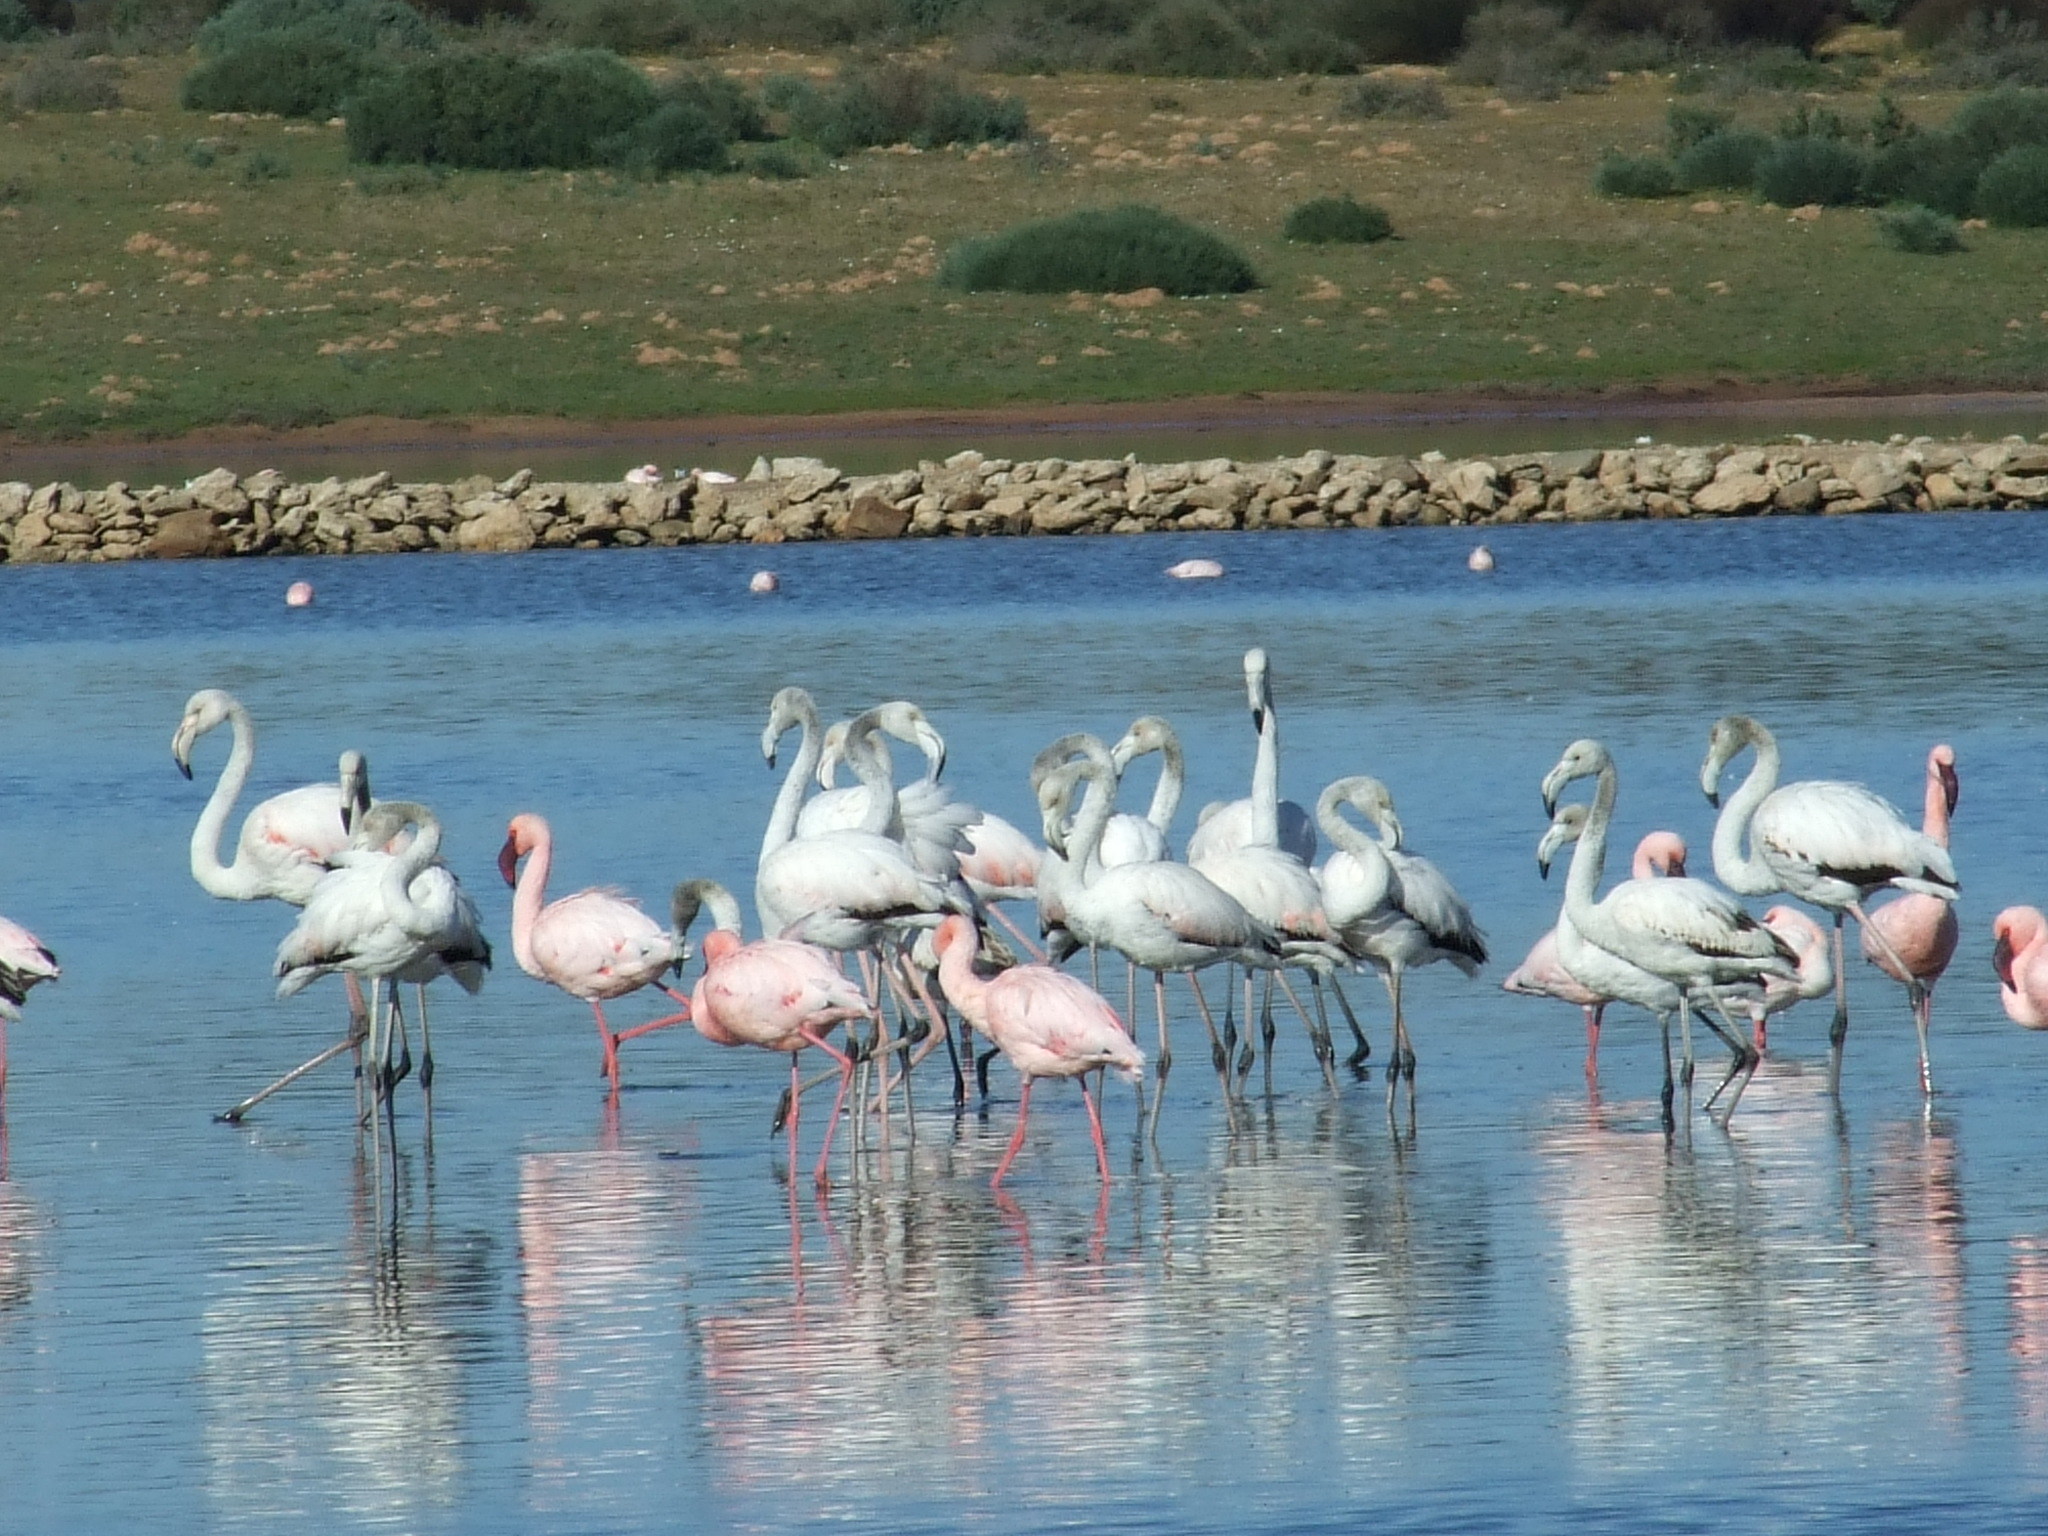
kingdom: Animalia
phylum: Chordata
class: Aves
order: Phoenicopteriformes
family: Phoenicopteridae
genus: Phoenicopterus
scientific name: Phoenicopterus roseus
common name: Greater flamingo
